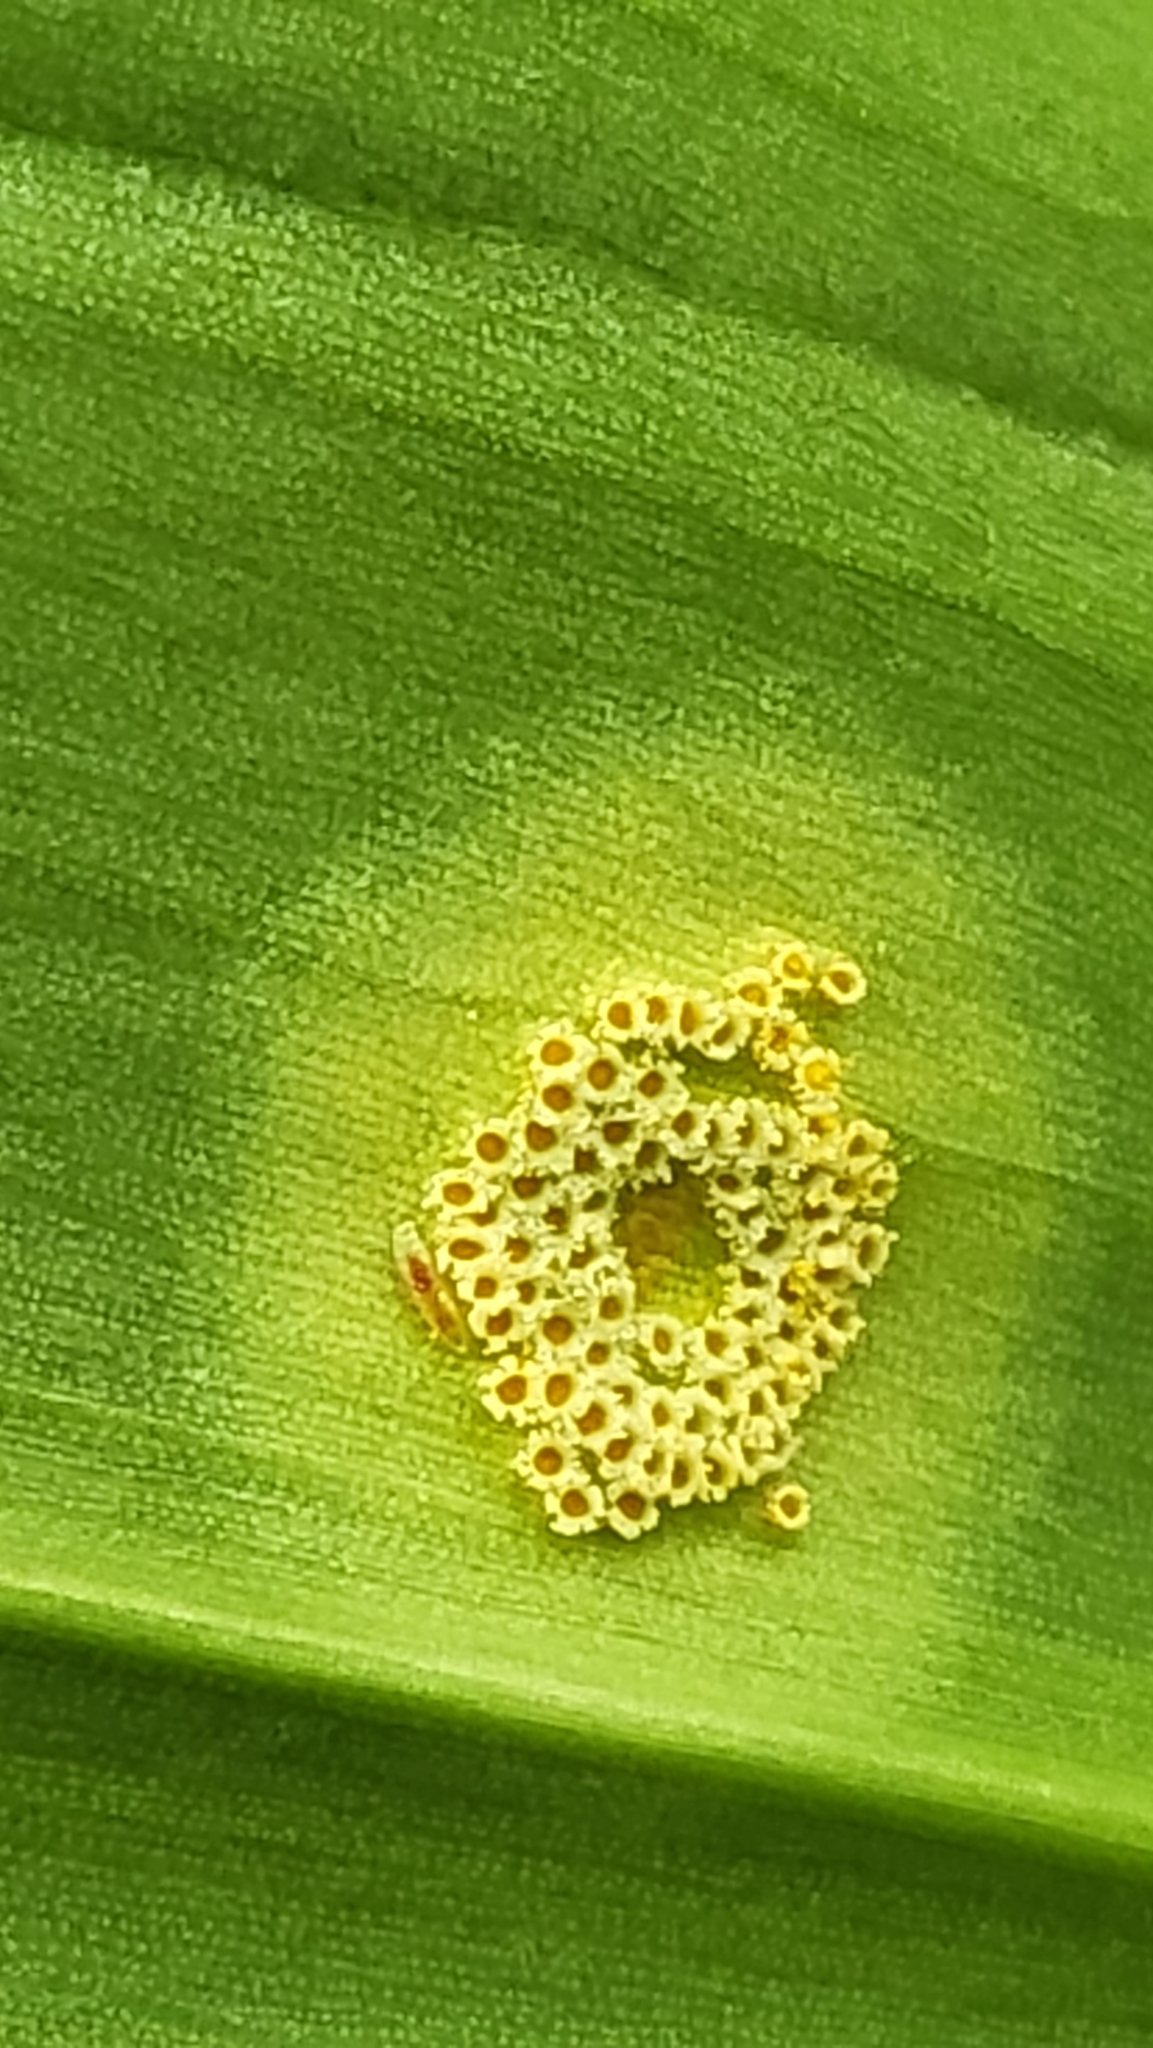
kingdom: Fungi
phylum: Basidiomycota
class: Pucciniomycetes
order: Pucciniales
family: Pucciniaceae
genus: Puccinia
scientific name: Puccinia sessilis
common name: Arum rust
